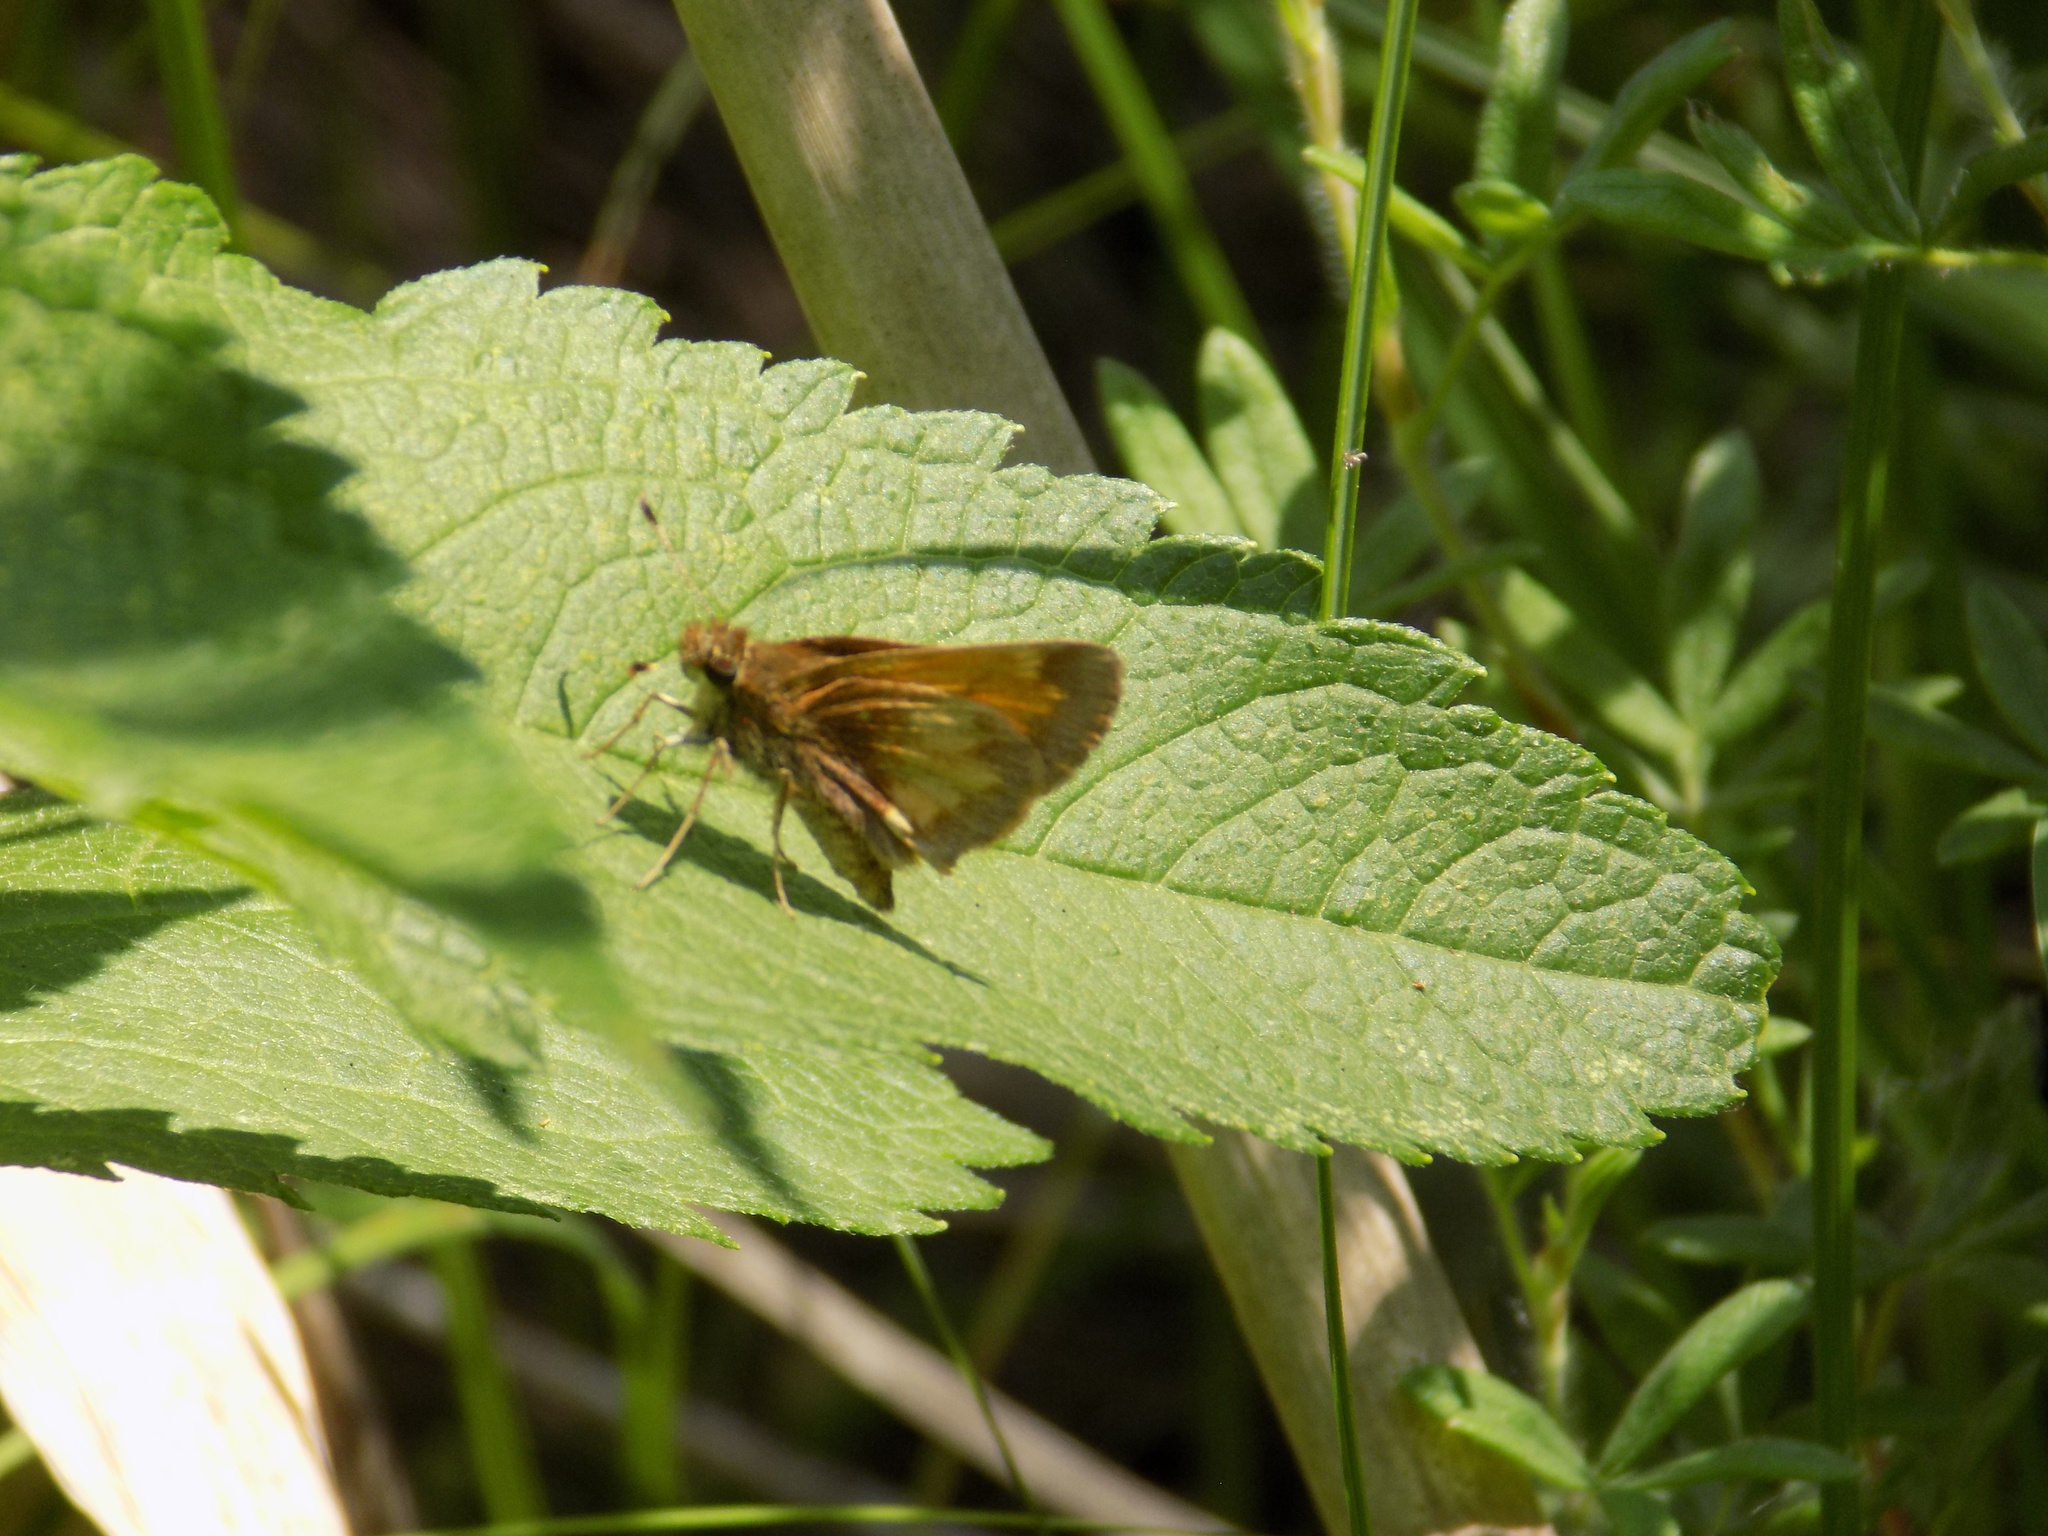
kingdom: Animalia
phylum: Arthropoda
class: Insecta
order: Lepidoptera
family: Hesperiidae
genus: Lon
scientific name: Lon hobomok
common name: Hobomok skipper
